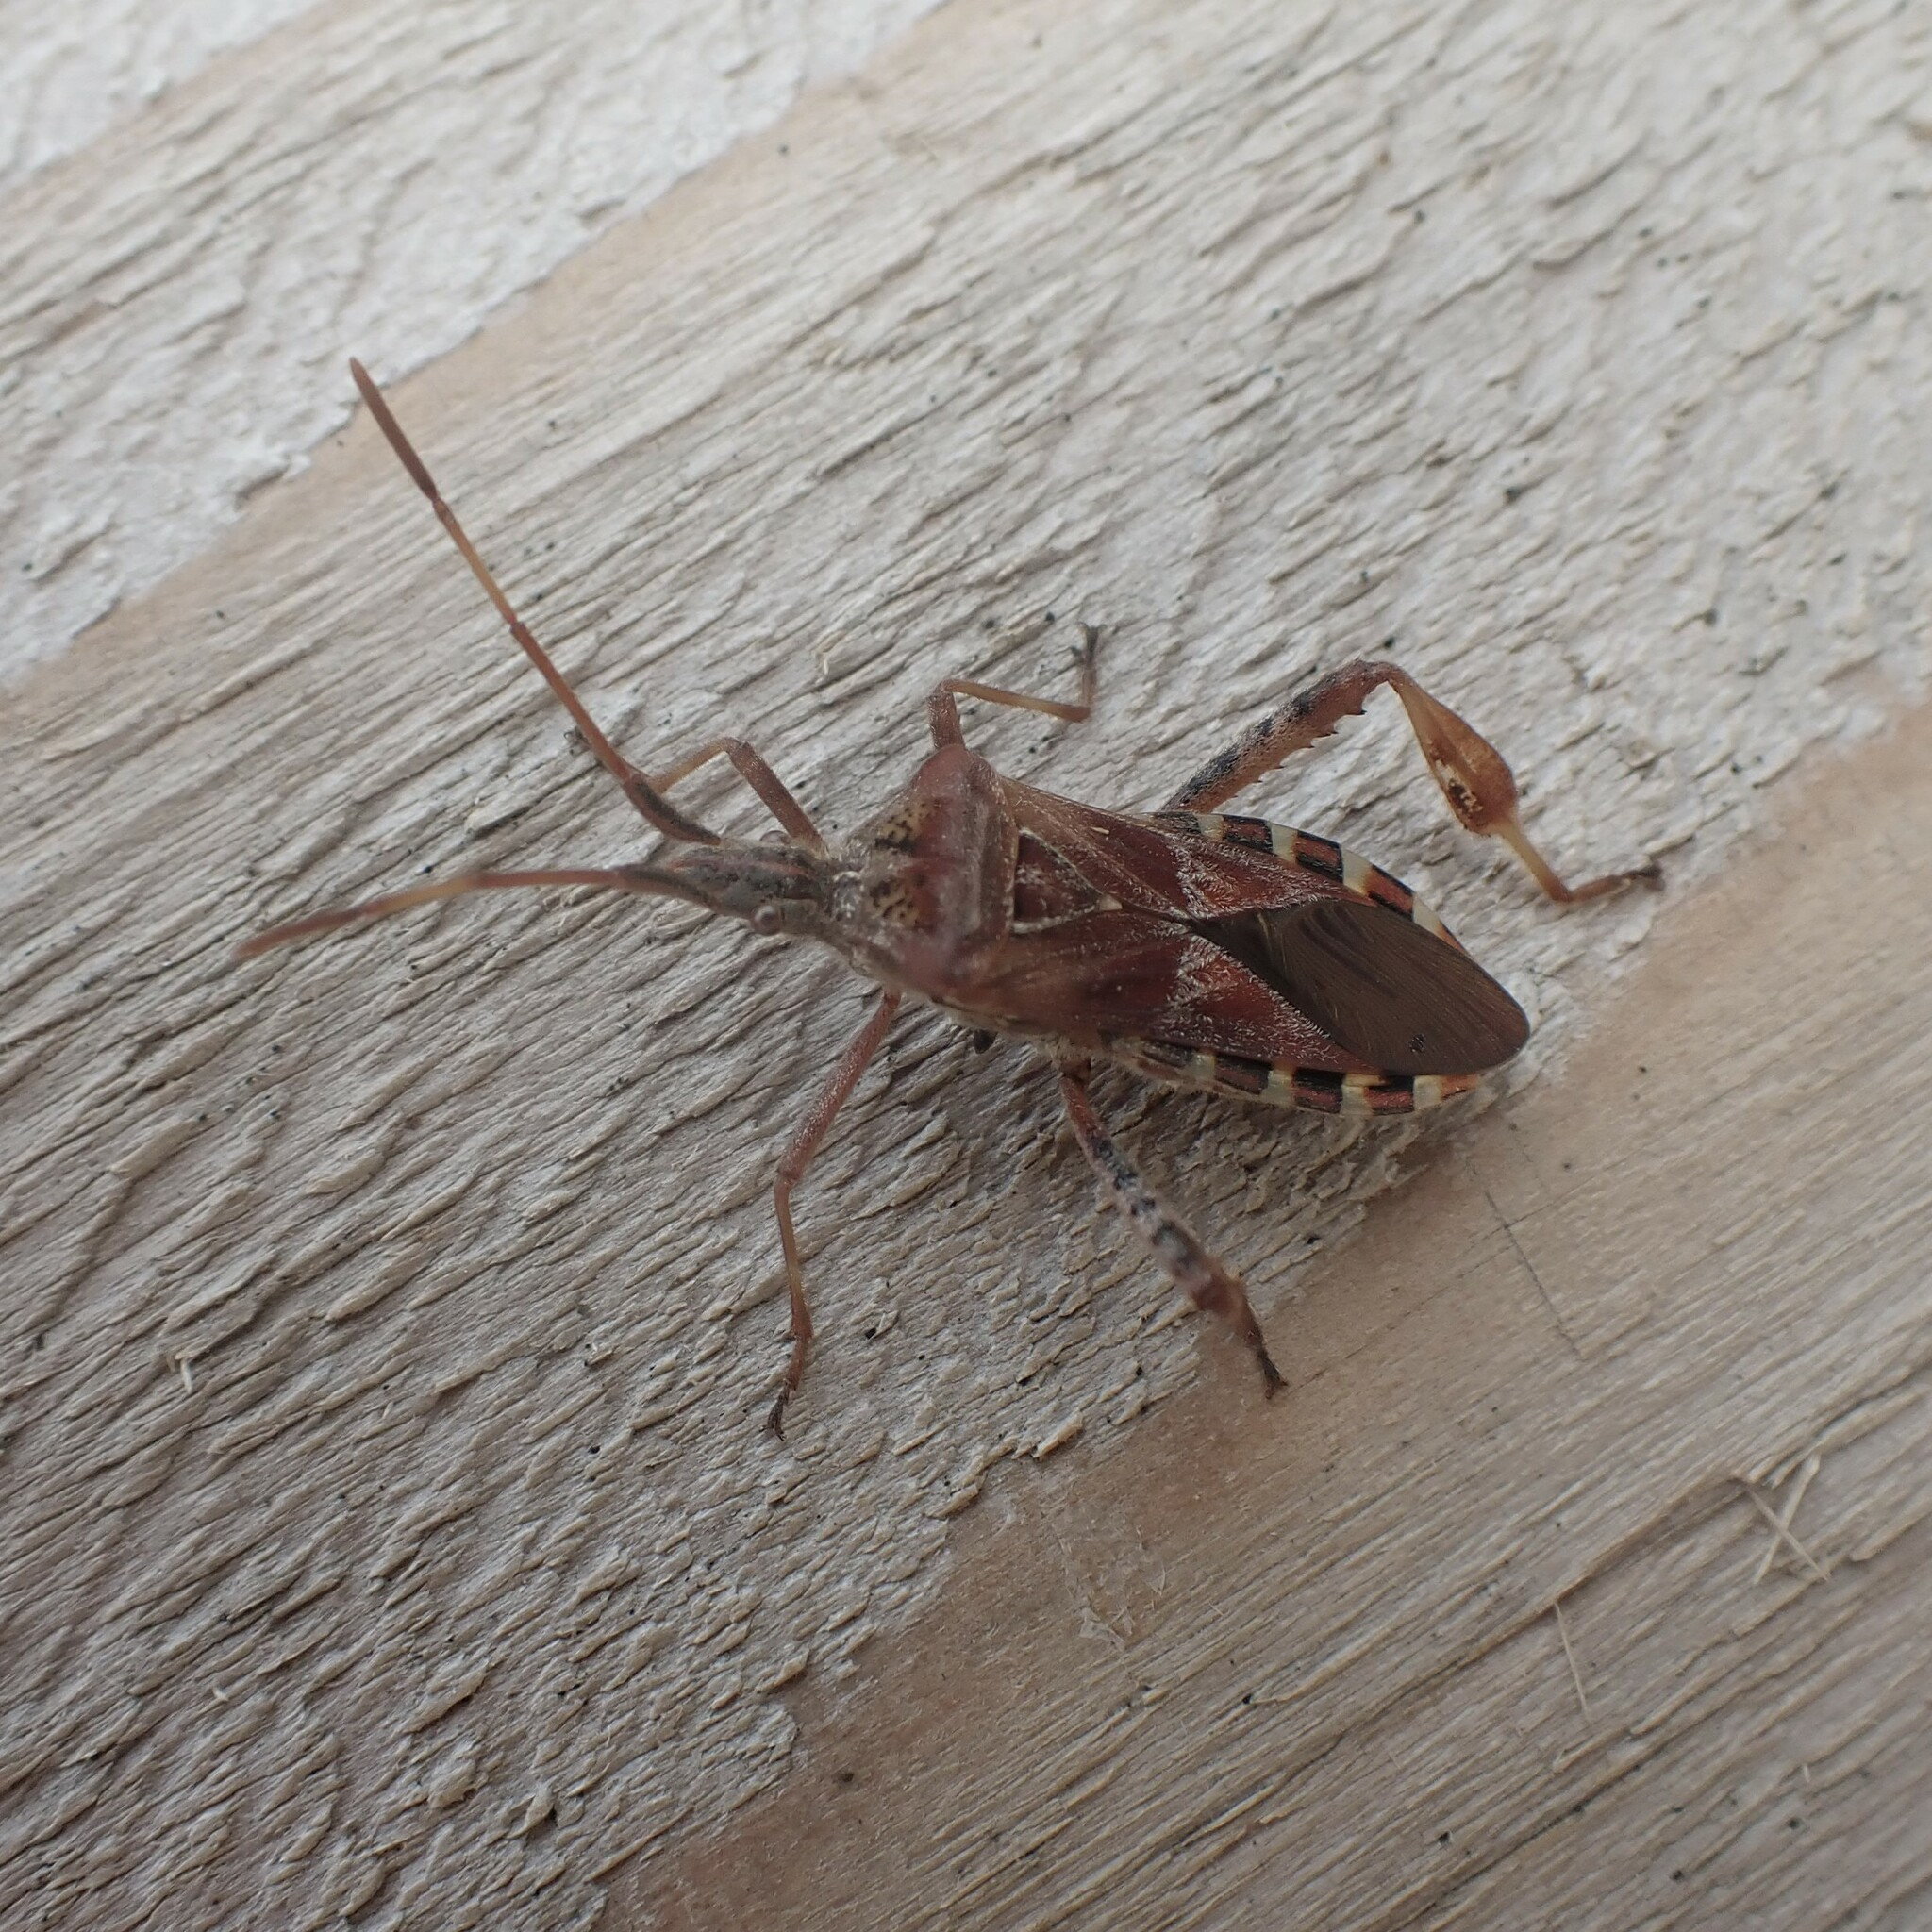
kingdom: Animalia
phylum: Arthropoda
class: Insecta
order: Hemiptera
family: Coreidae
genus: Leptoglossus
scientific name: Leptoglossus occidentalis
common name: Western conifer-seed bug
